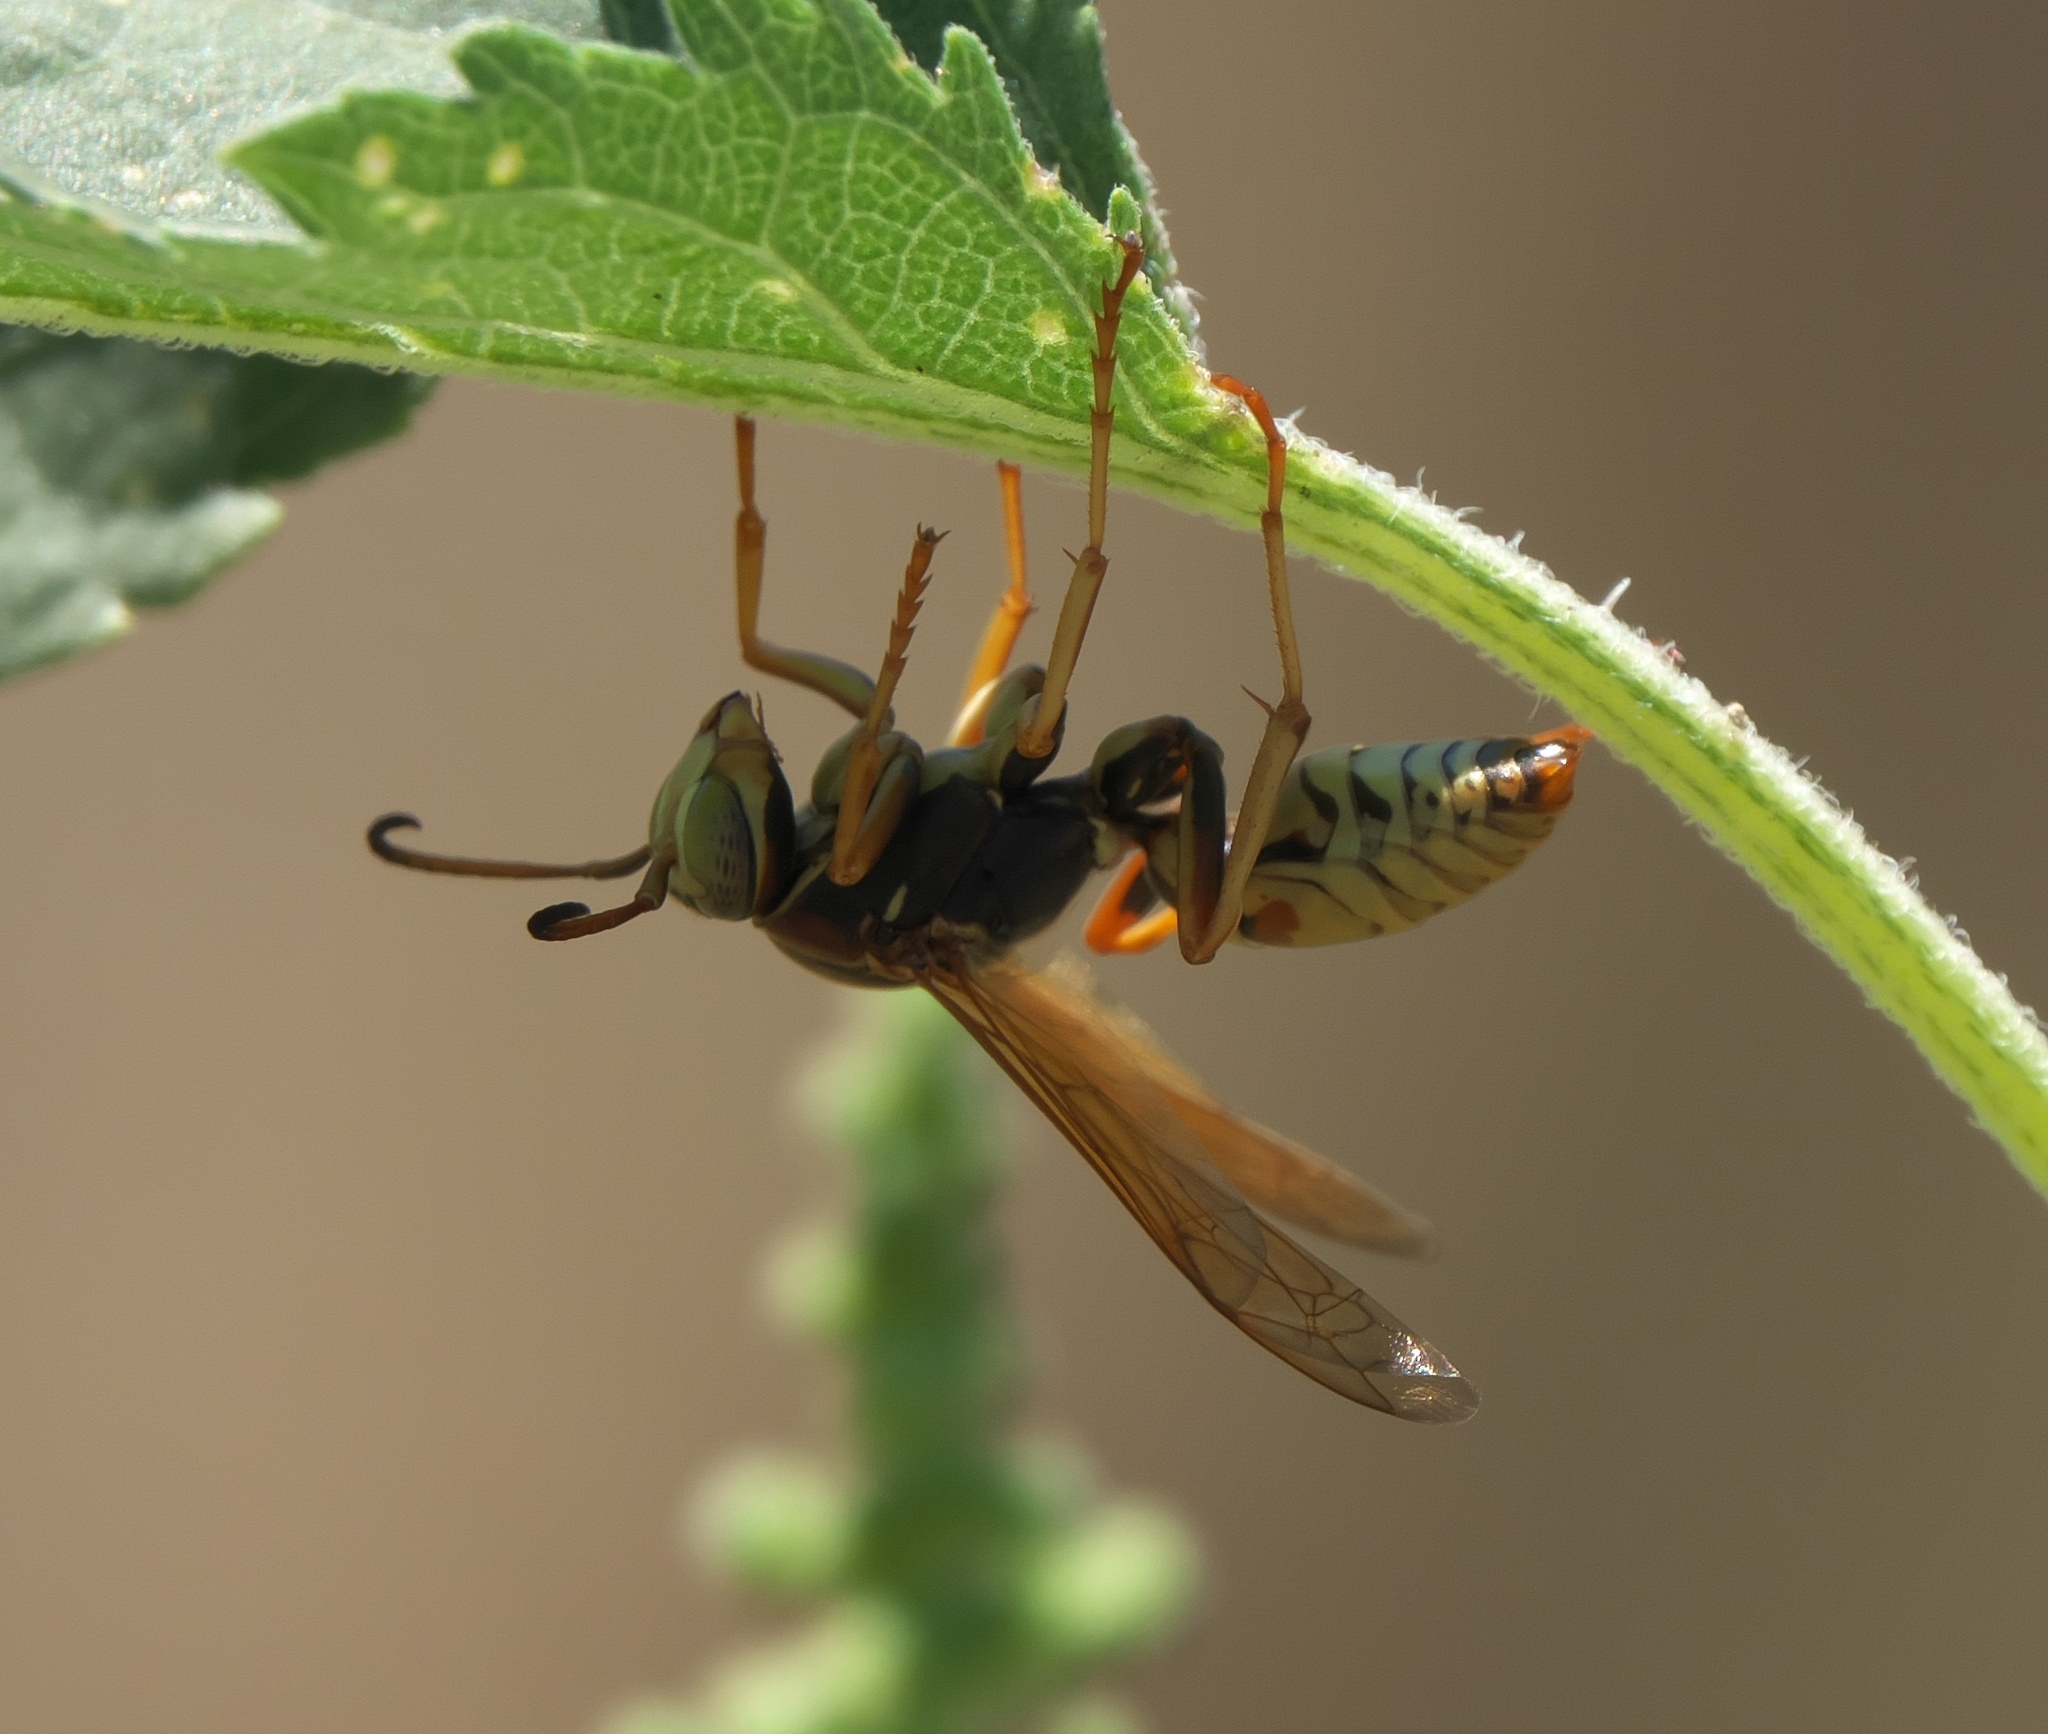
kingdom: Animalia
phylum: Arthropoda
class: Insecta
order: Hymenoptera
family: Eumenidae
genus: Polistes
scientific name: Polistes dominula
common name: Paper wasp
